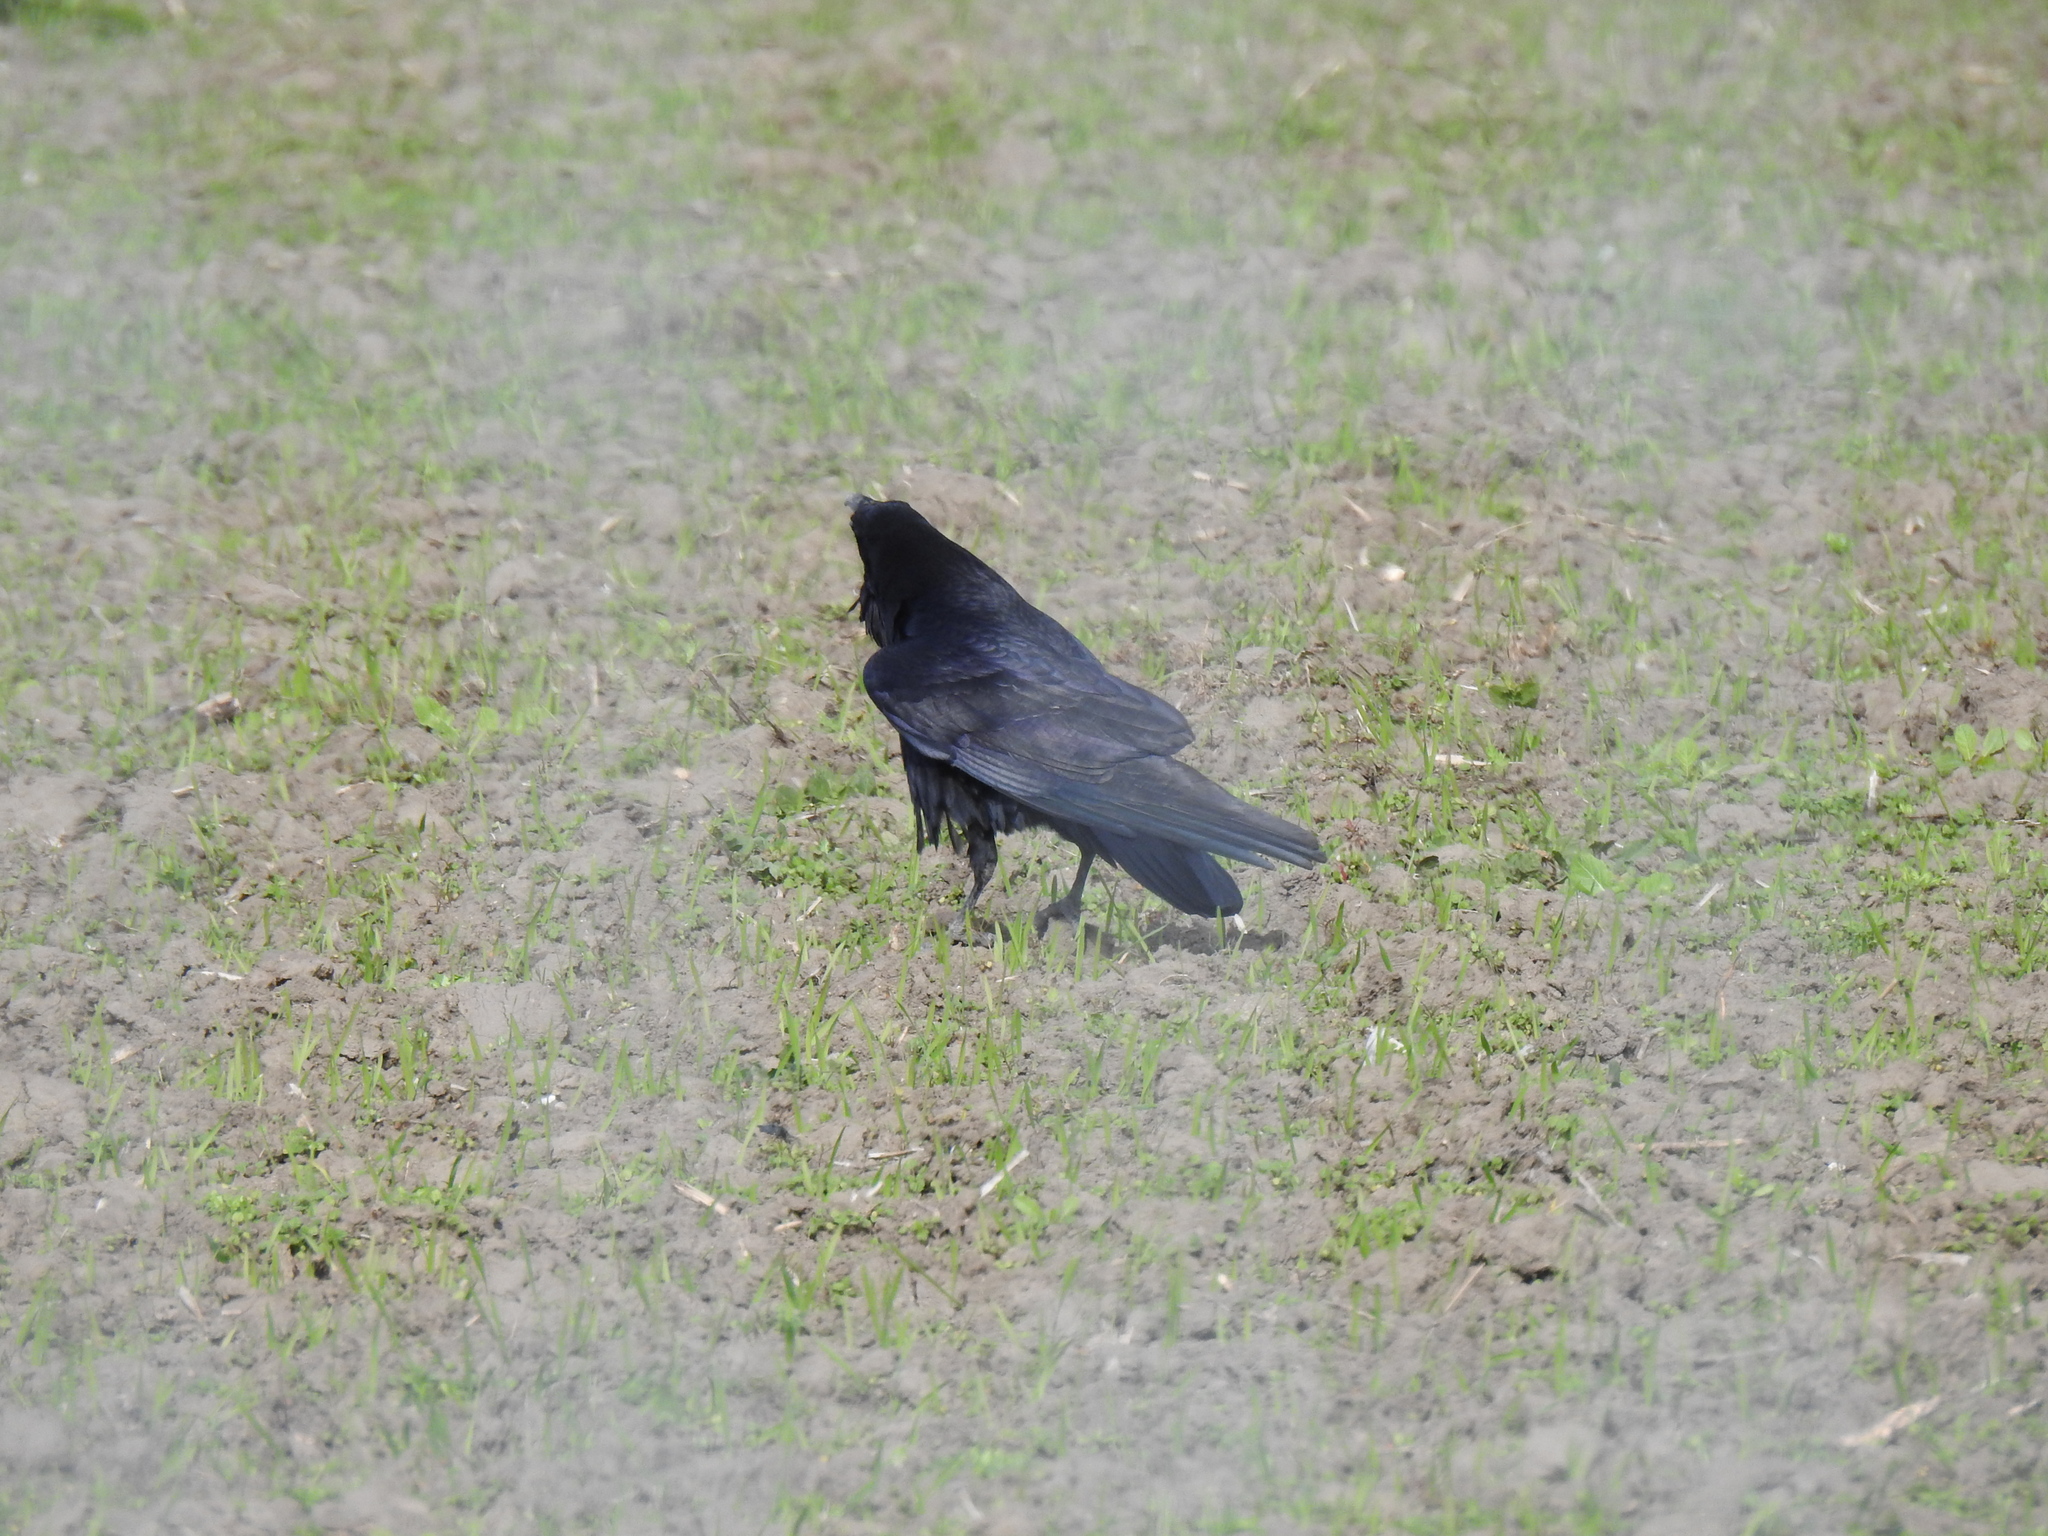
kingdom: Animalia
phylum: Chordata
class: Aves
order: Passeriformes
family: Corvidae
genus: Corvus
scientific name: Corvus corax
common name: Common raven
